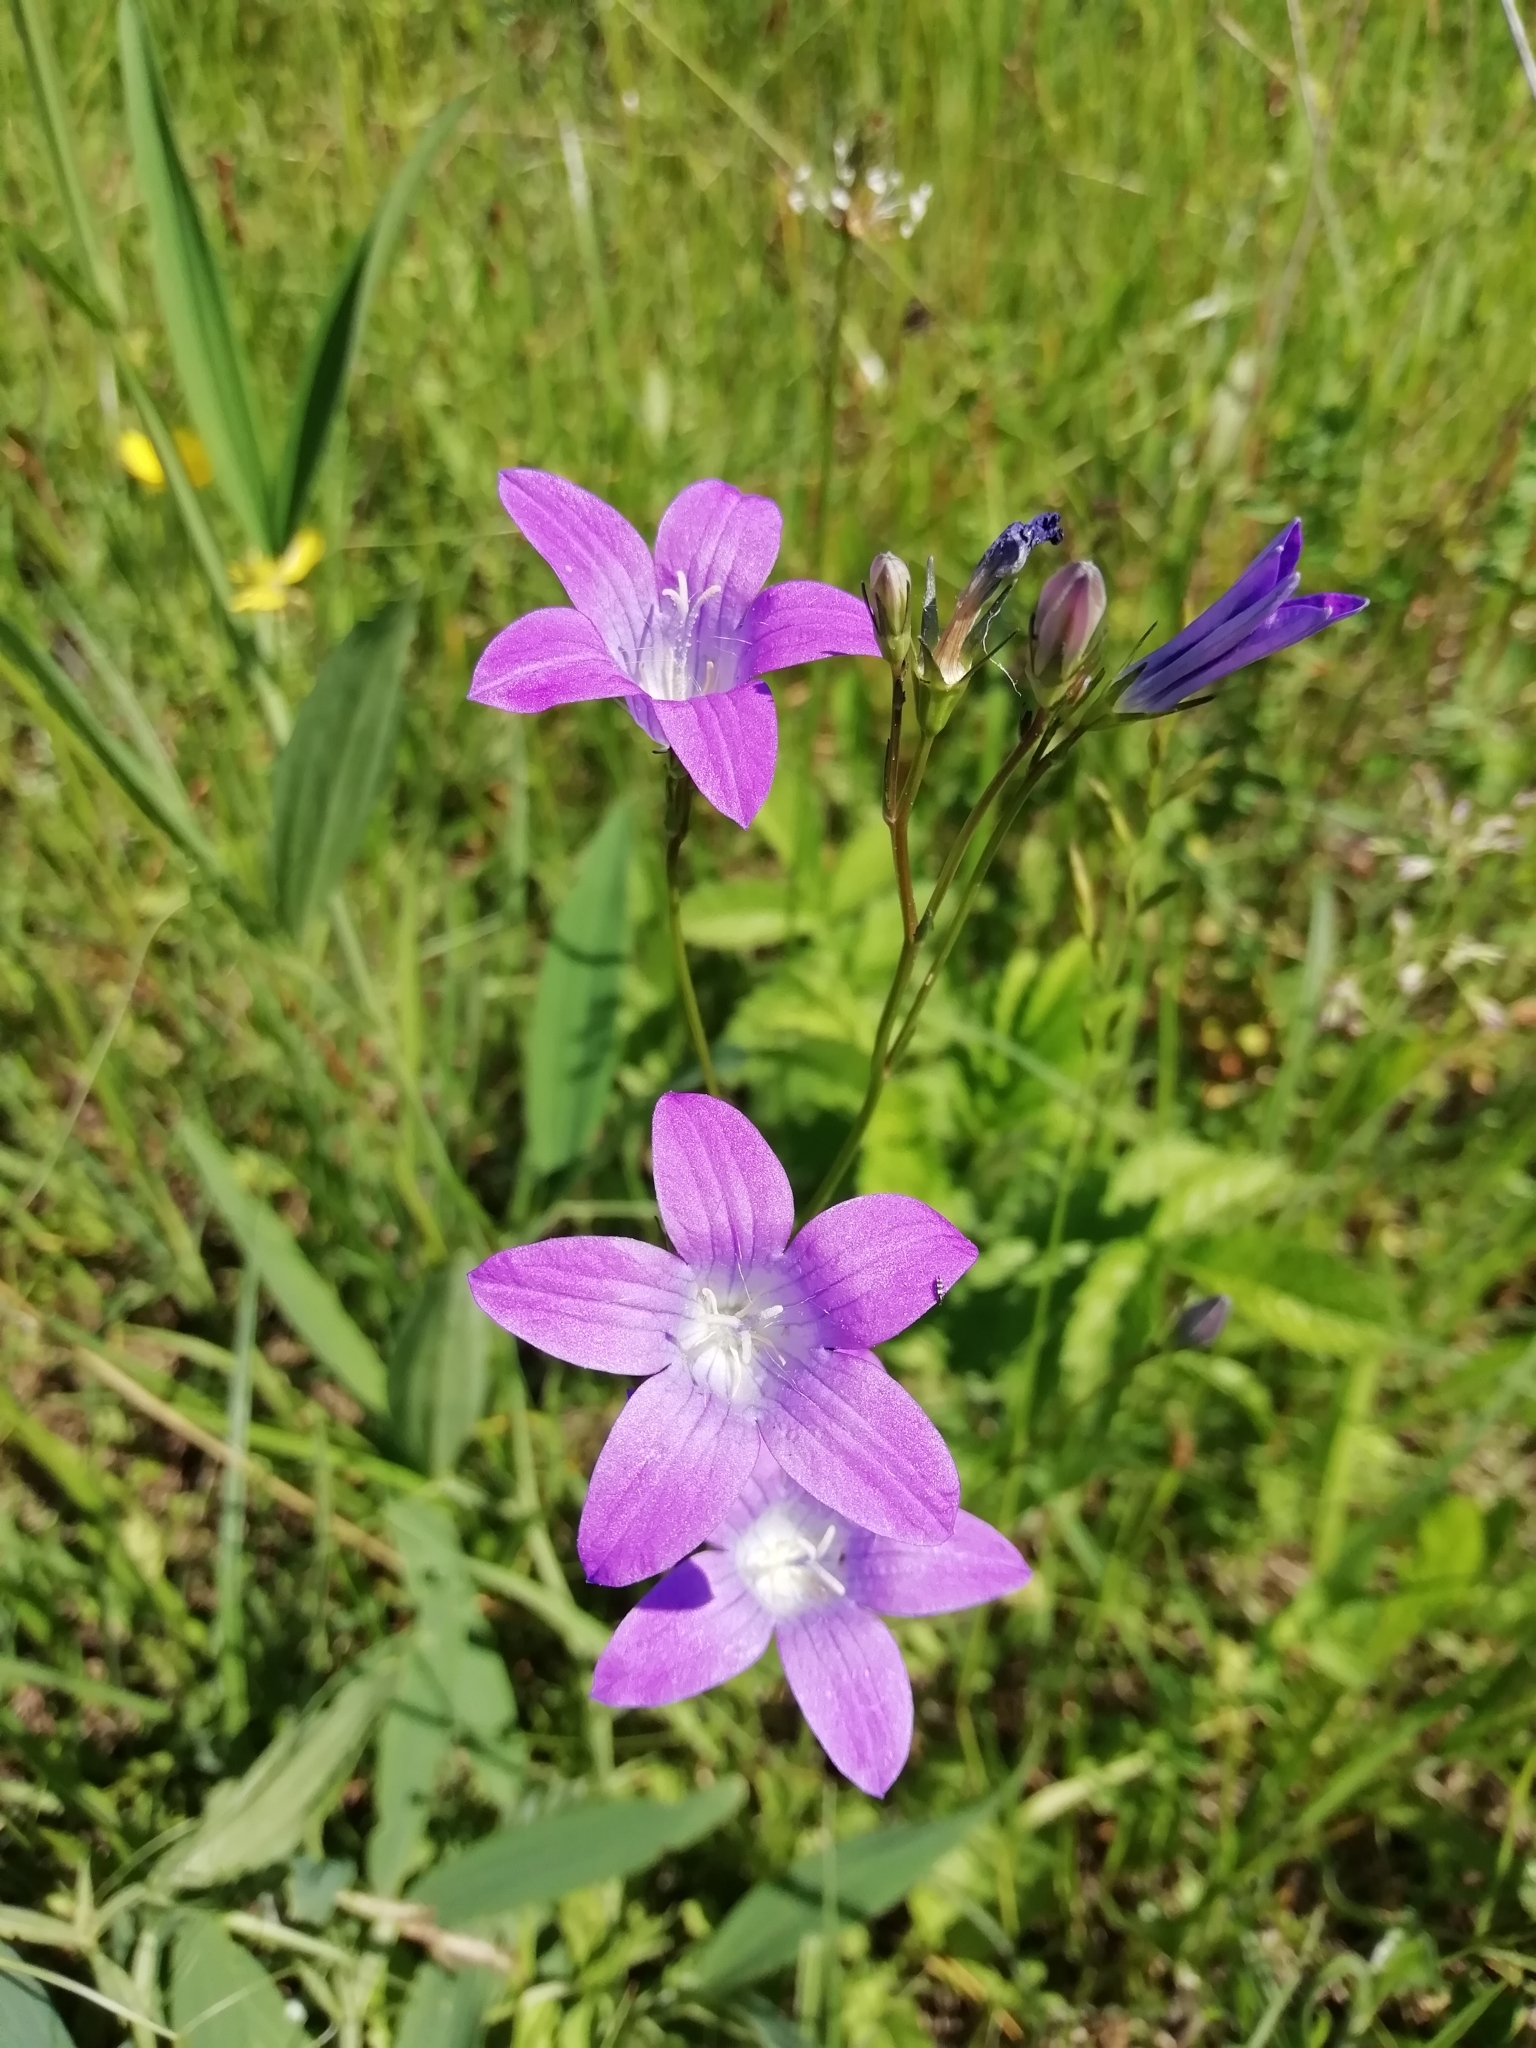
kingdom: Plantae
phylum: Tracheophyta
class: Magnoliopsida
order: Asterales
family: Campanulaceae
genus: Campanula
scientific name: Campanula patula
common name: Spreading bellflower
